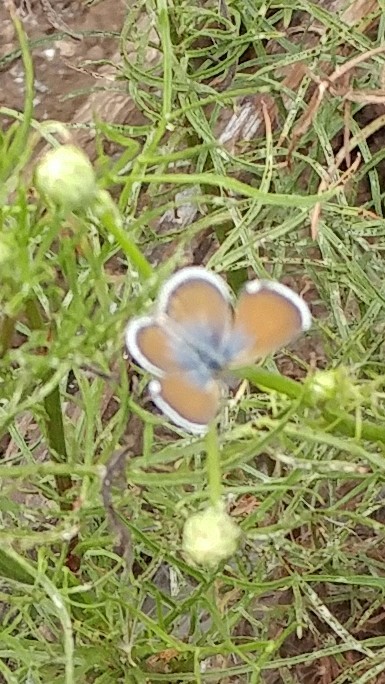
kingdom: Animalia
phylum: Arthropoda
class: Insecta
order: Lepidoptera
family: Lycaenidae
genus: Brephidium
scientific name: Brephidium exilis
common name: Pygmy blue
